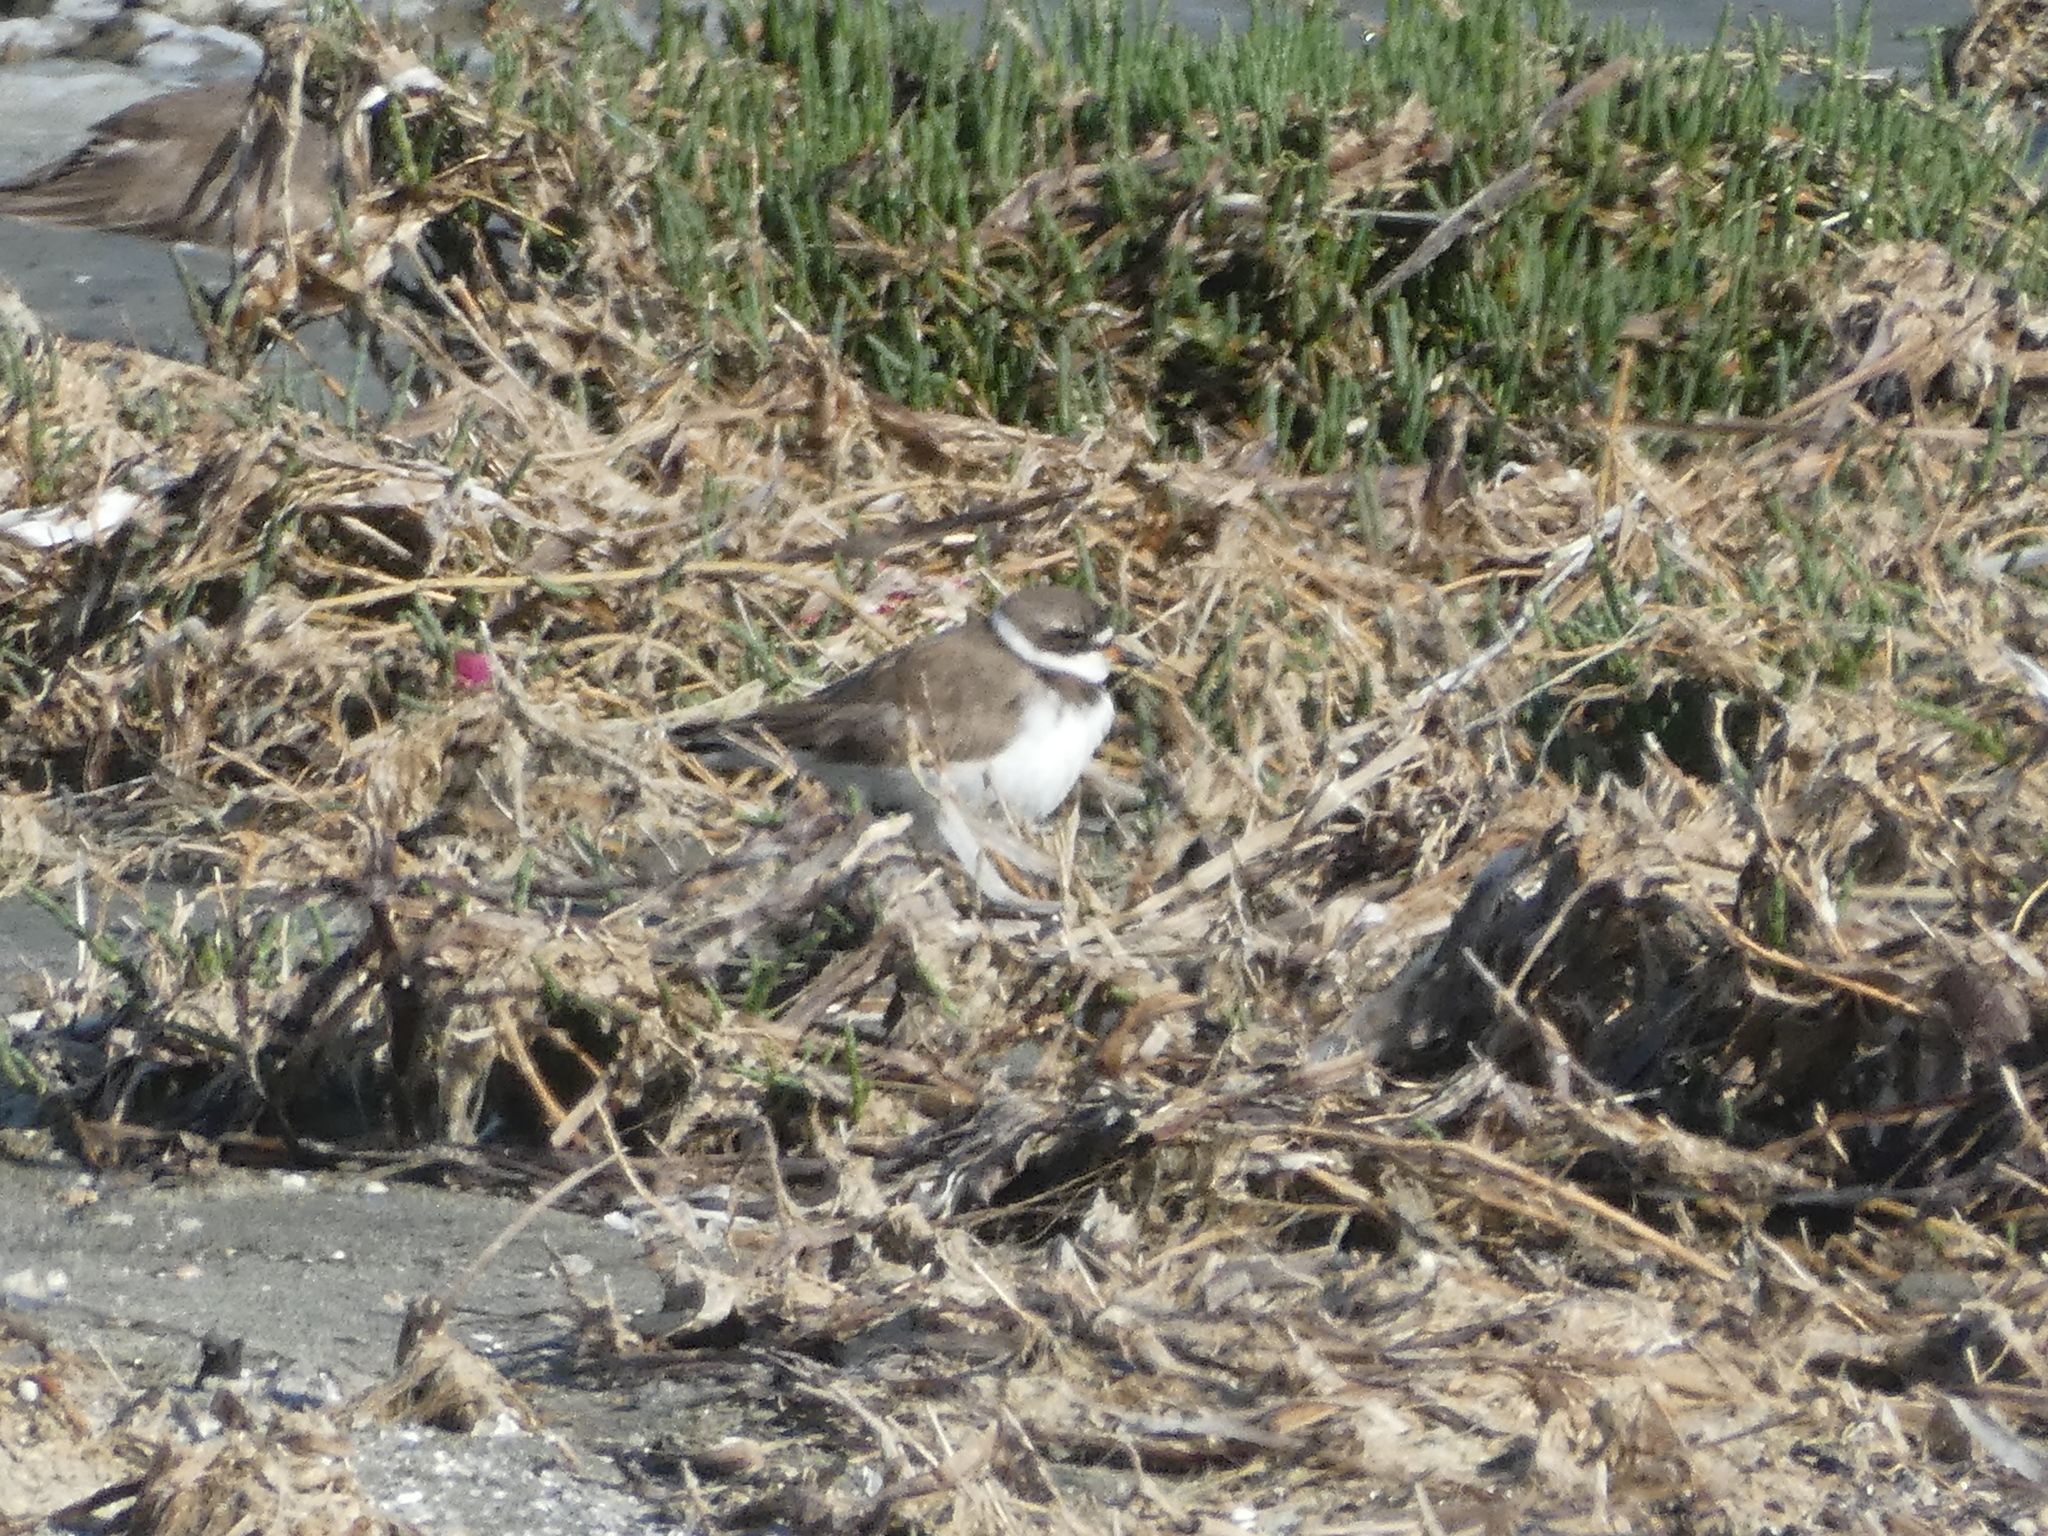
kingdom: Animalia
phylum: Chordata
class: Aves
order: Charadriiformes
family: Charadriidae
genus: Charadrius
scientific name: Charadrius semipalmatus
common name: Semipalmated plover
